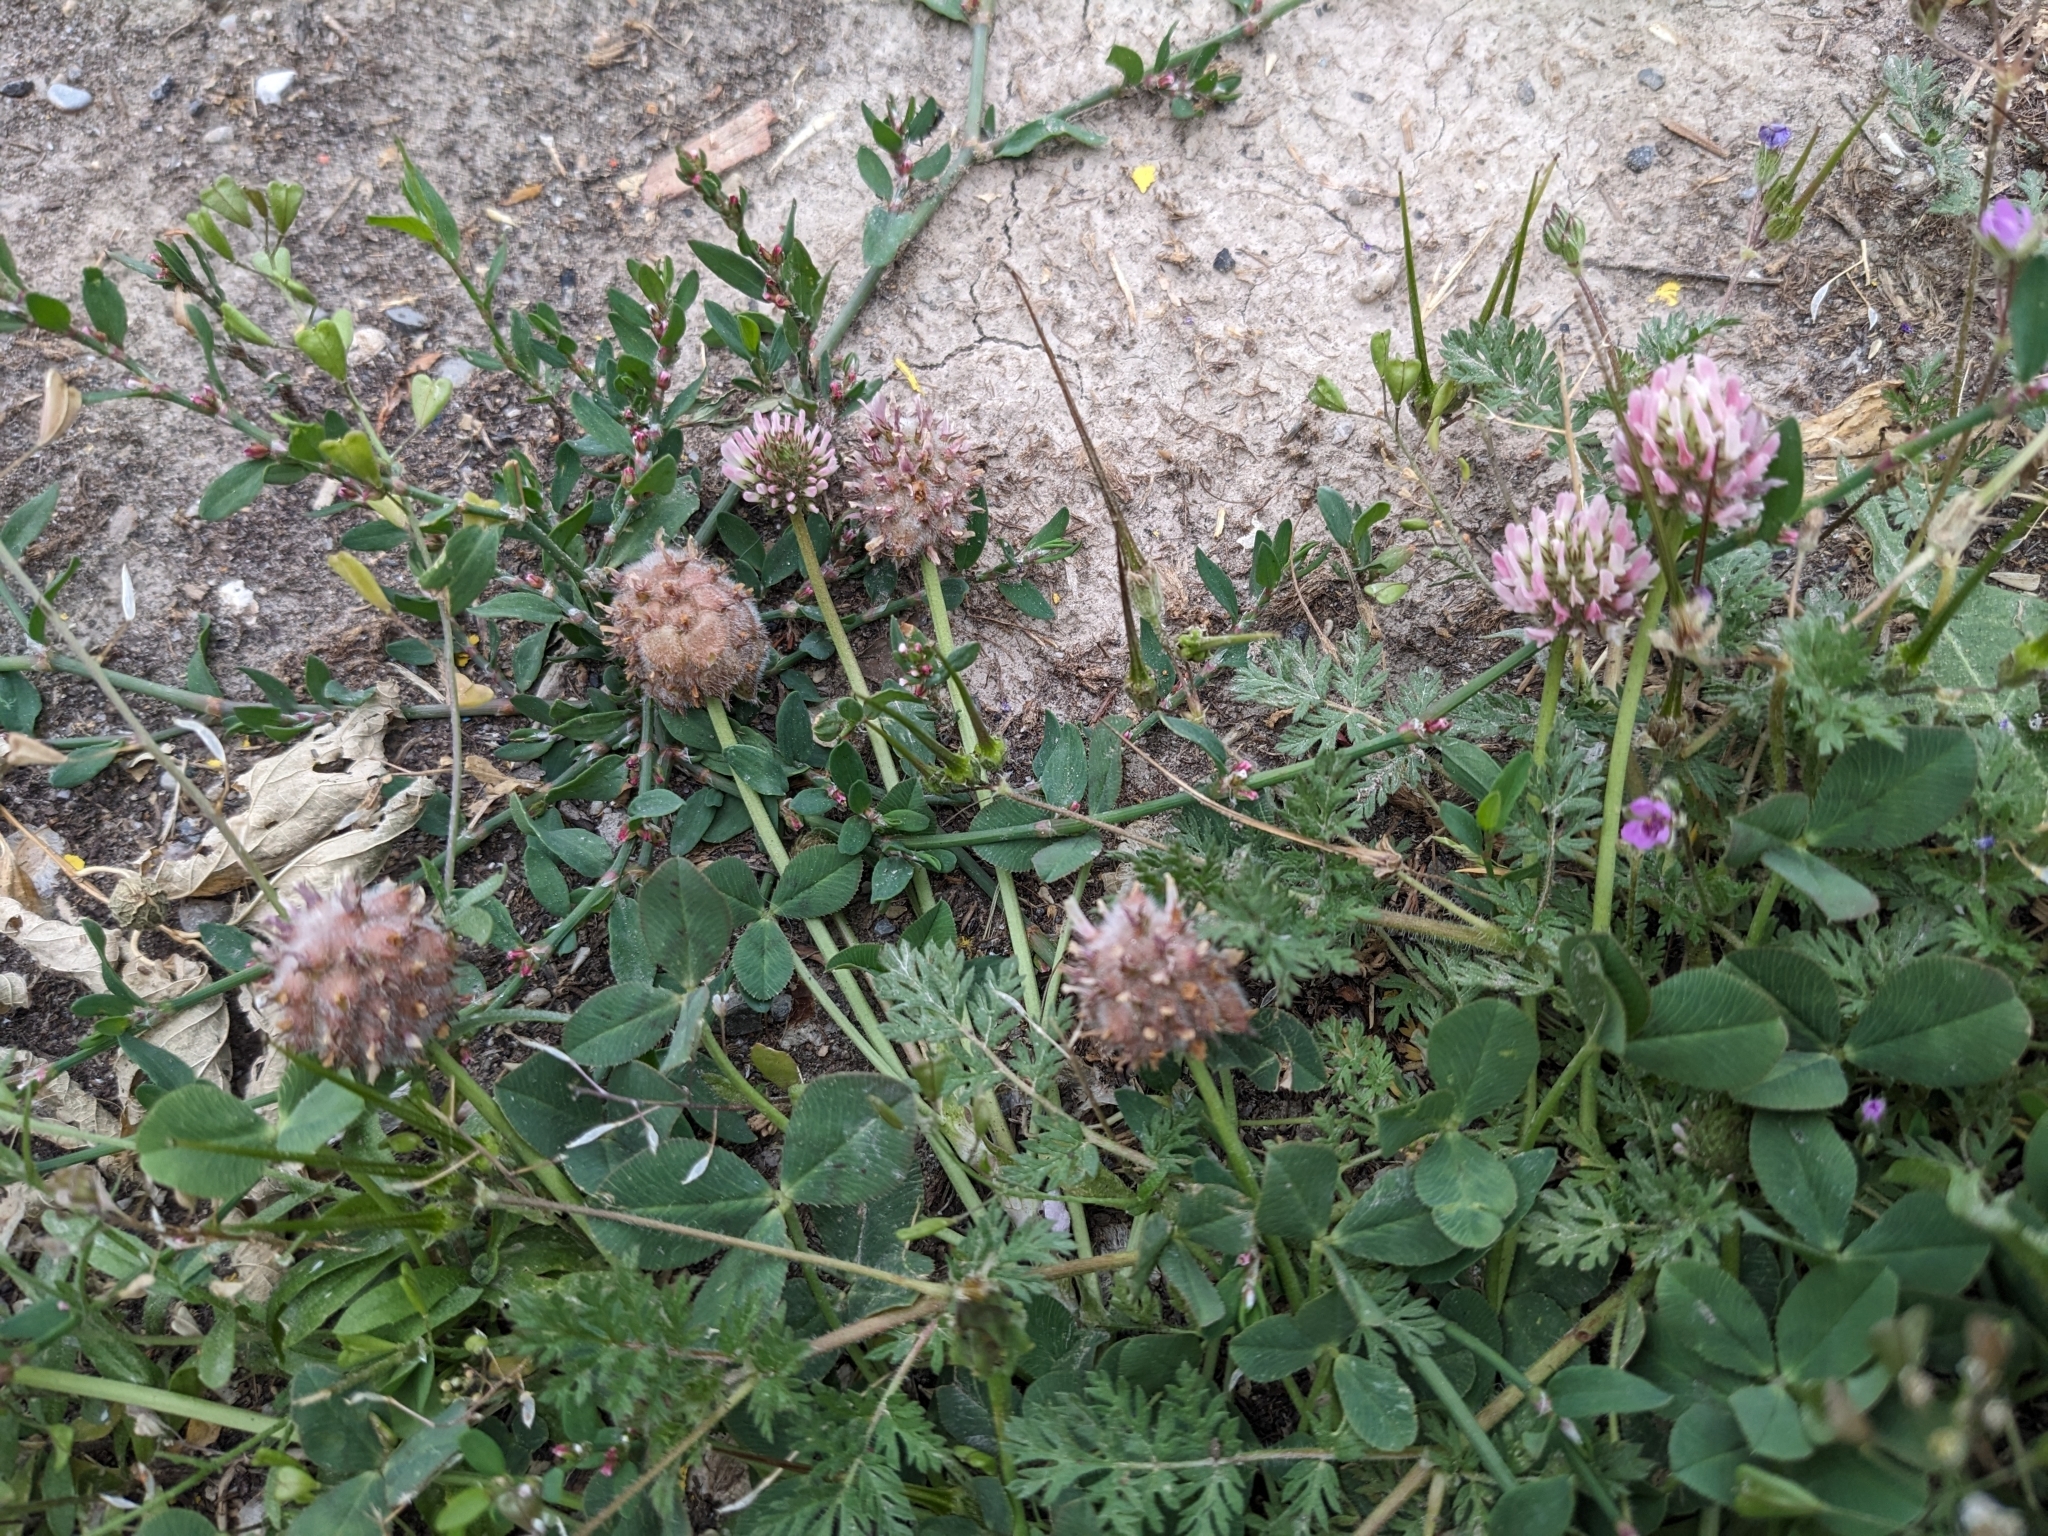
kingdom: Plantae
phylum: Tracheophyta
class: Magnoliopsida
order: Fabales
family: Fabaceae
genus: Trifolium
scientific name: Trifolium fragiferum
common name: Strawberry clover
